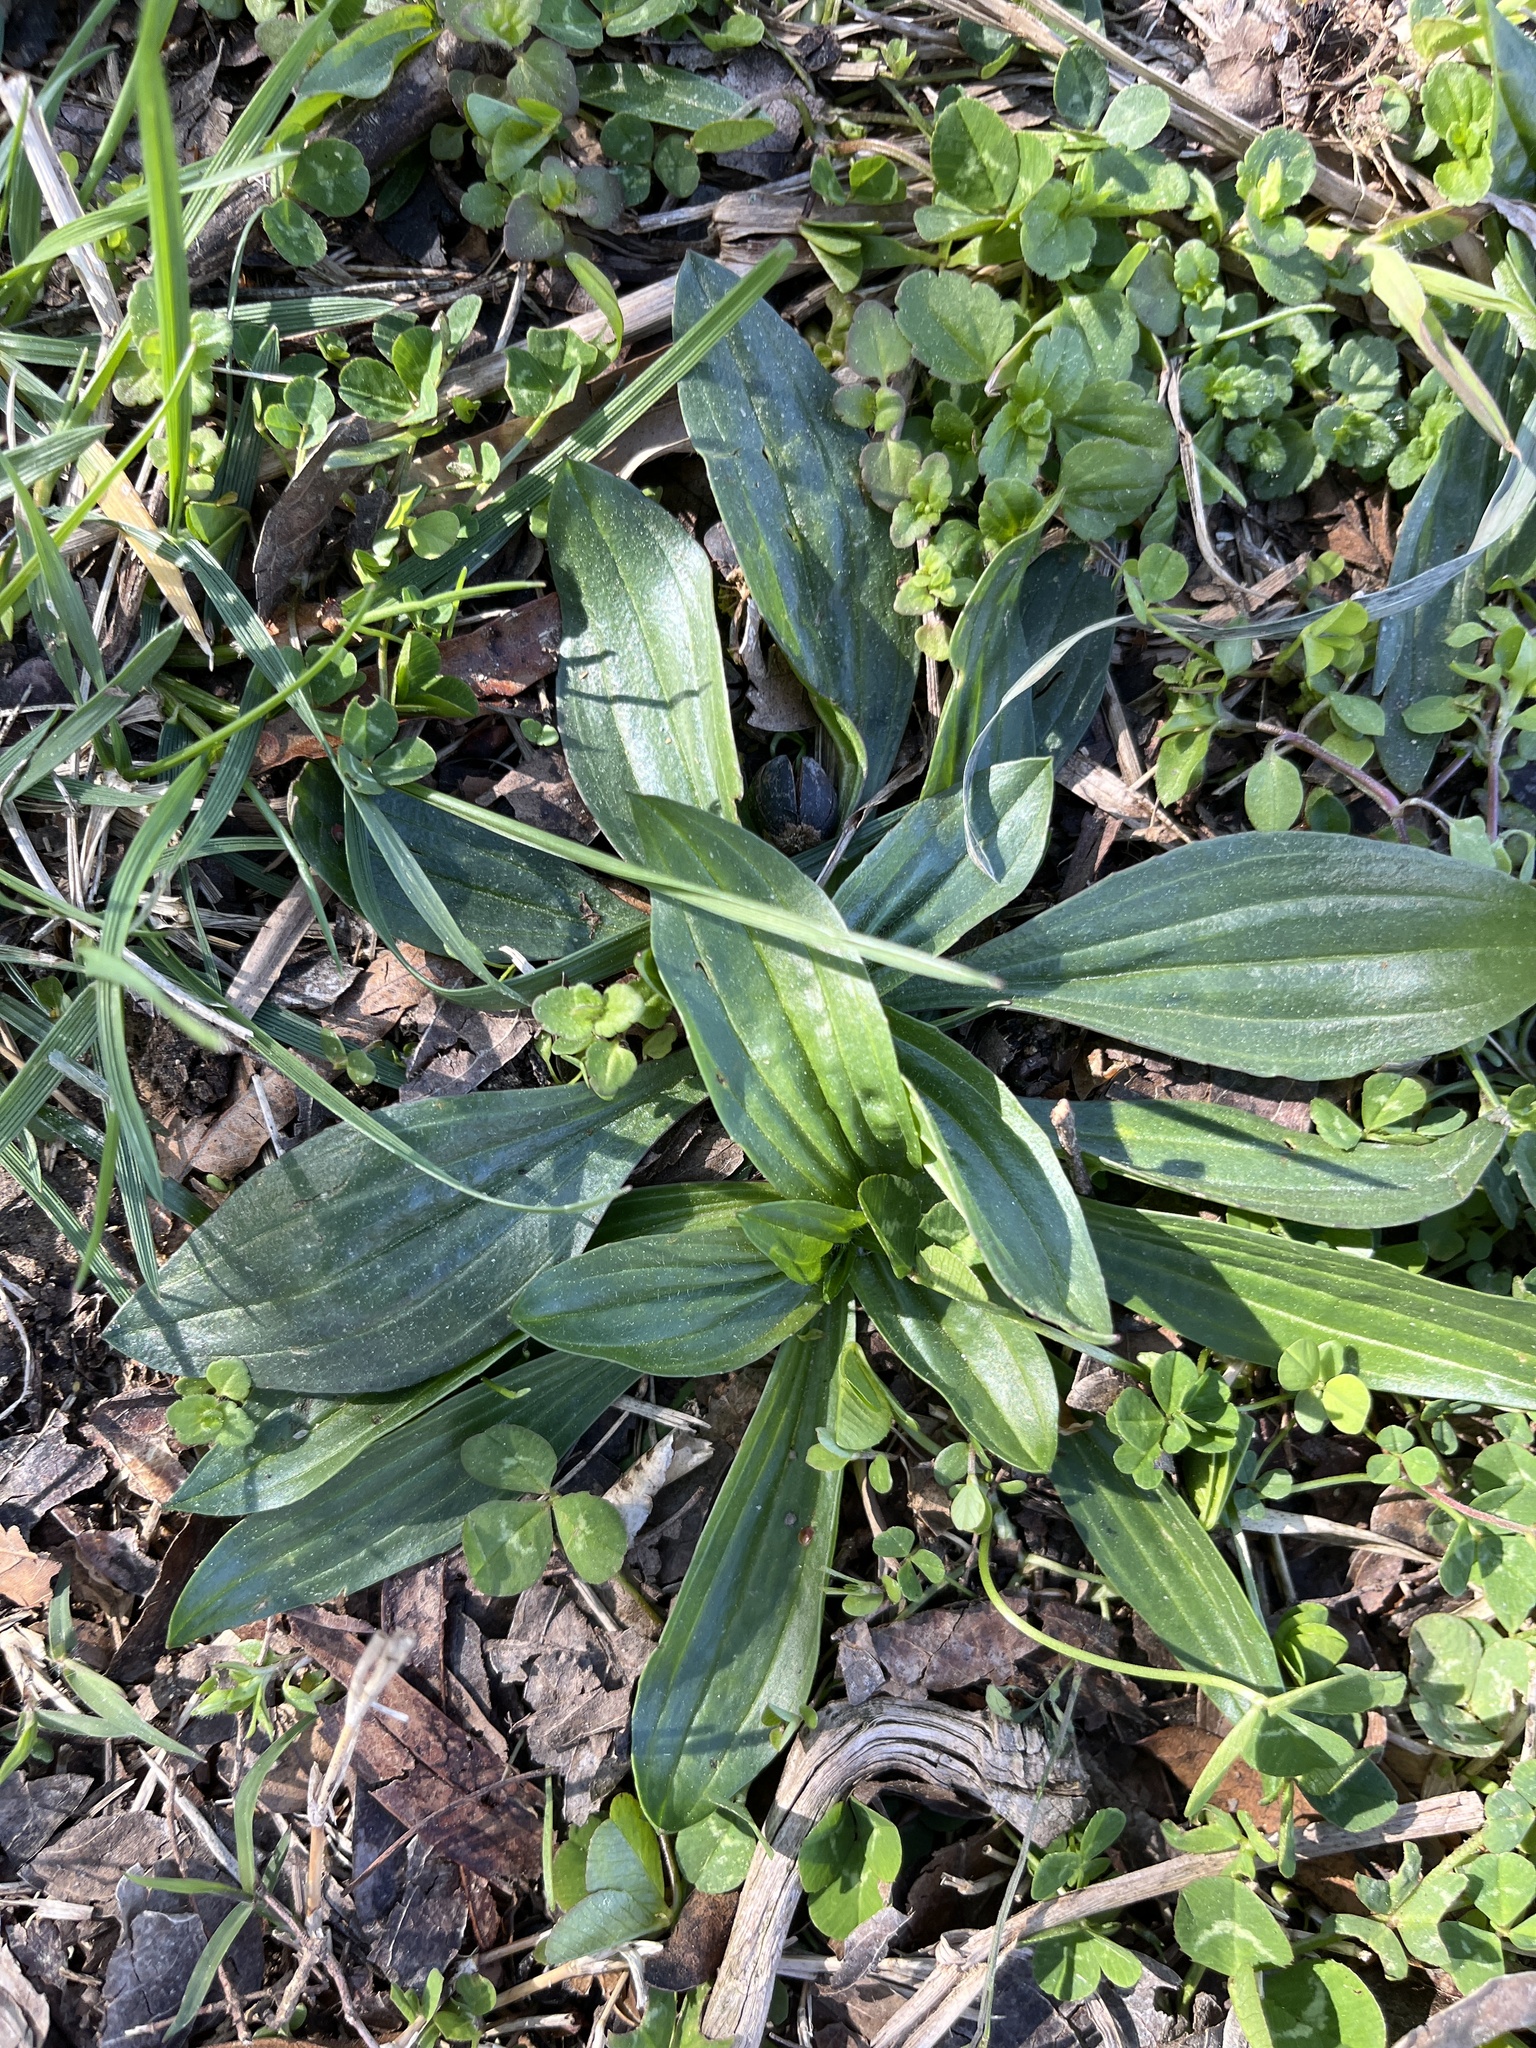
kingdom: Plantae
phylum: Tracheophyta
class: Magnoliopsida
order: Lamiales
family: Plantaginaceae
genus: Plantago
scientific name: Plantago lanceolata
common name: Ribwort plantain
